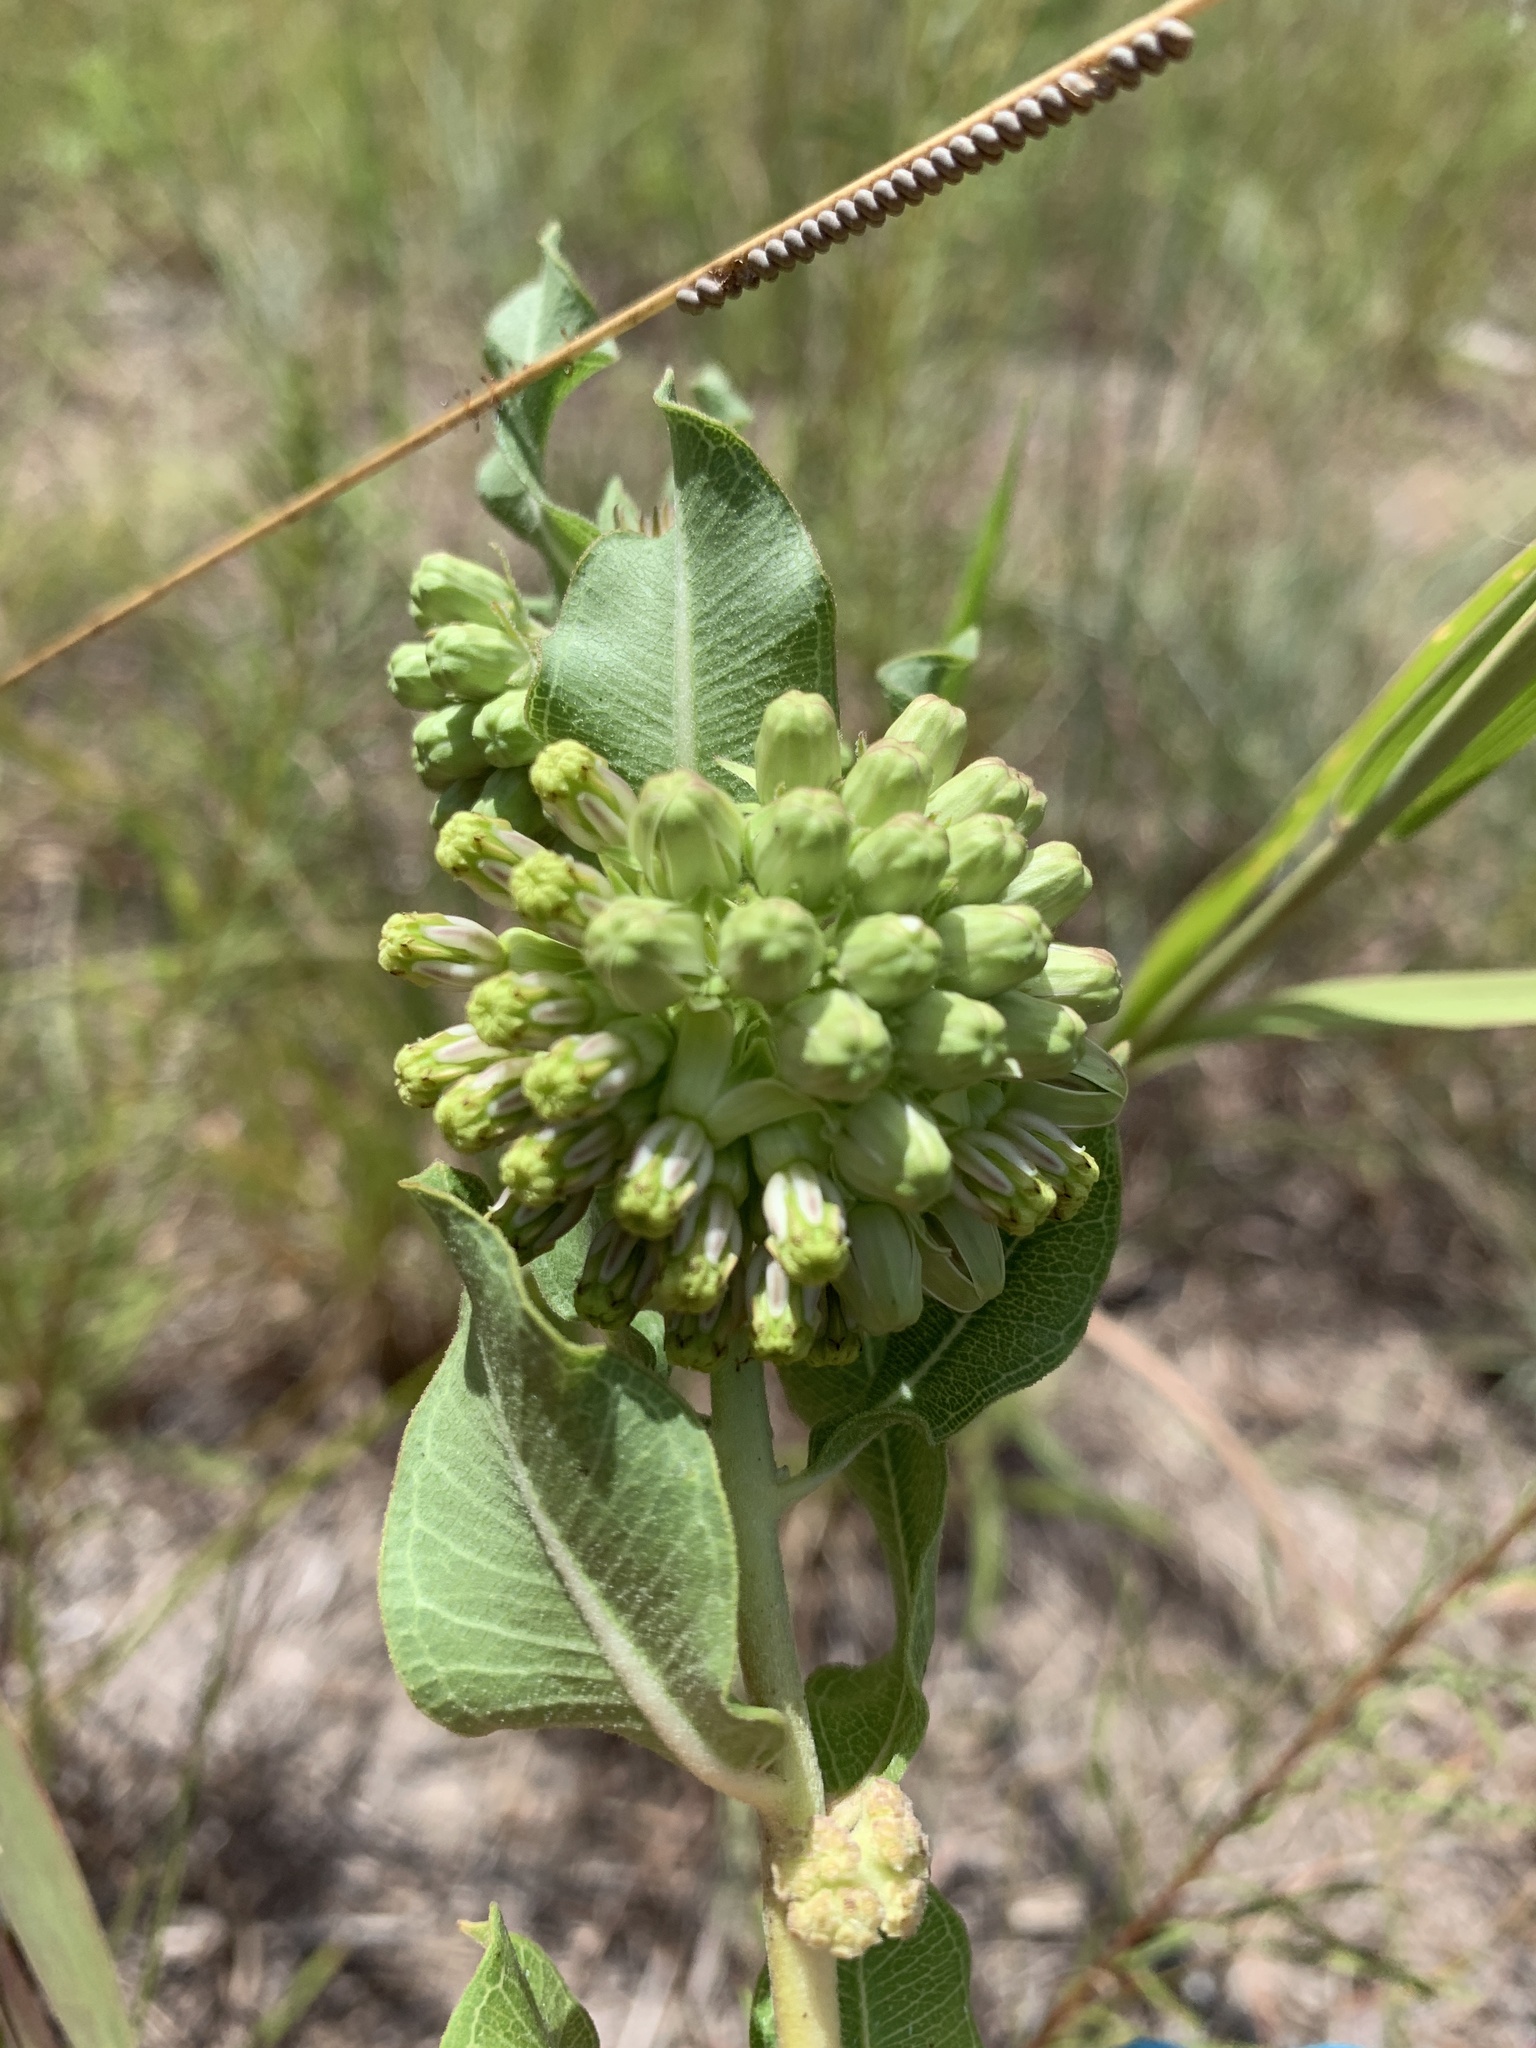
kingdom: Plantae
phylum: Tracheophyta
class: Magnoliopsida
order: Gentianales
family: Apocynaceae
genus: Asclepias
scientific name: Asclepias viridiflora
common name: Green comet milkweed
